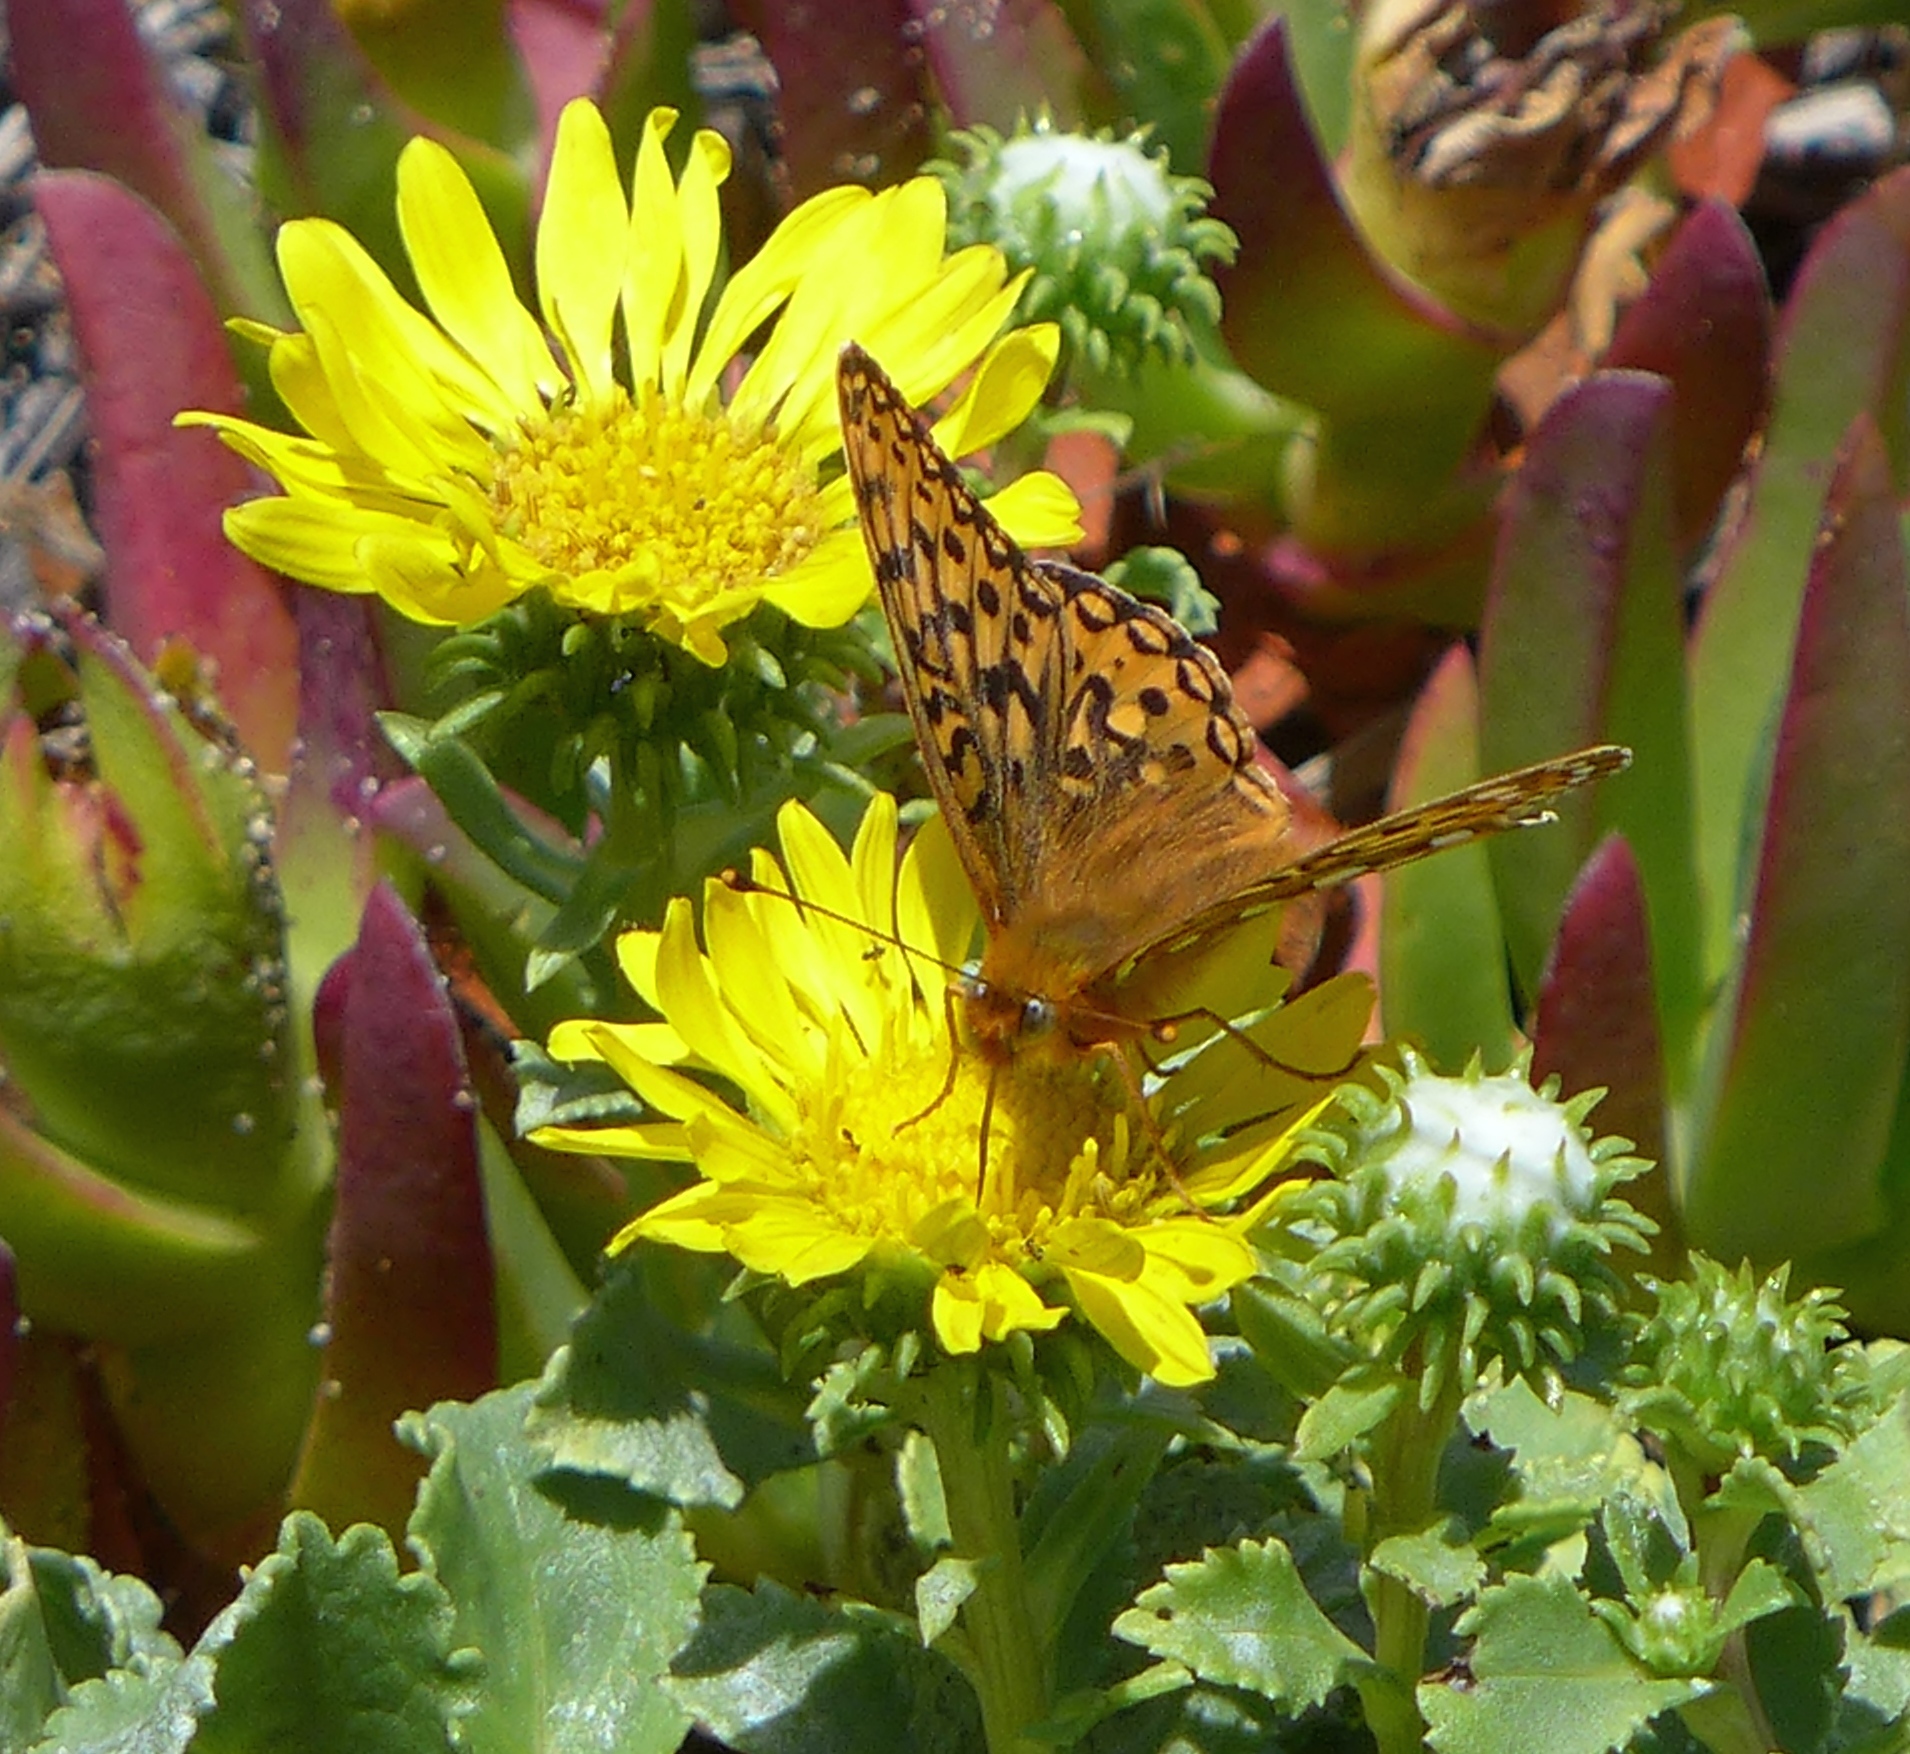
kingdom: Animalia
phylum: Arthropoda
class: Insecta
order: Lepidoptera
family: Nymphalidae
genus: Speyeria
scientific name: Speyeria zerene
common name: Zerene fritillary
